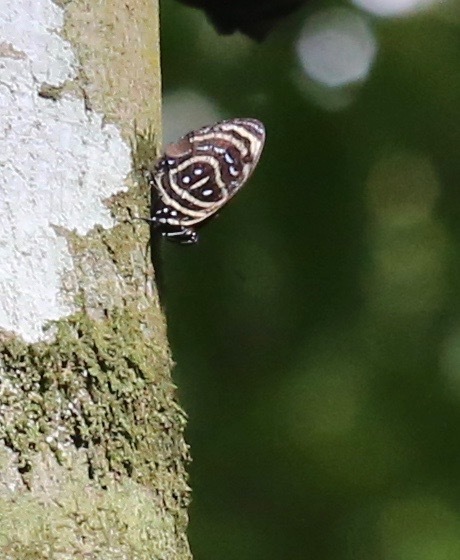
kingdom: Animalia
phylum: Arthropoda
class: Insecta
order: Lepidoptera
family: Nymphalidae
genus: Catagramma
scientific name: Catagramma astarte
